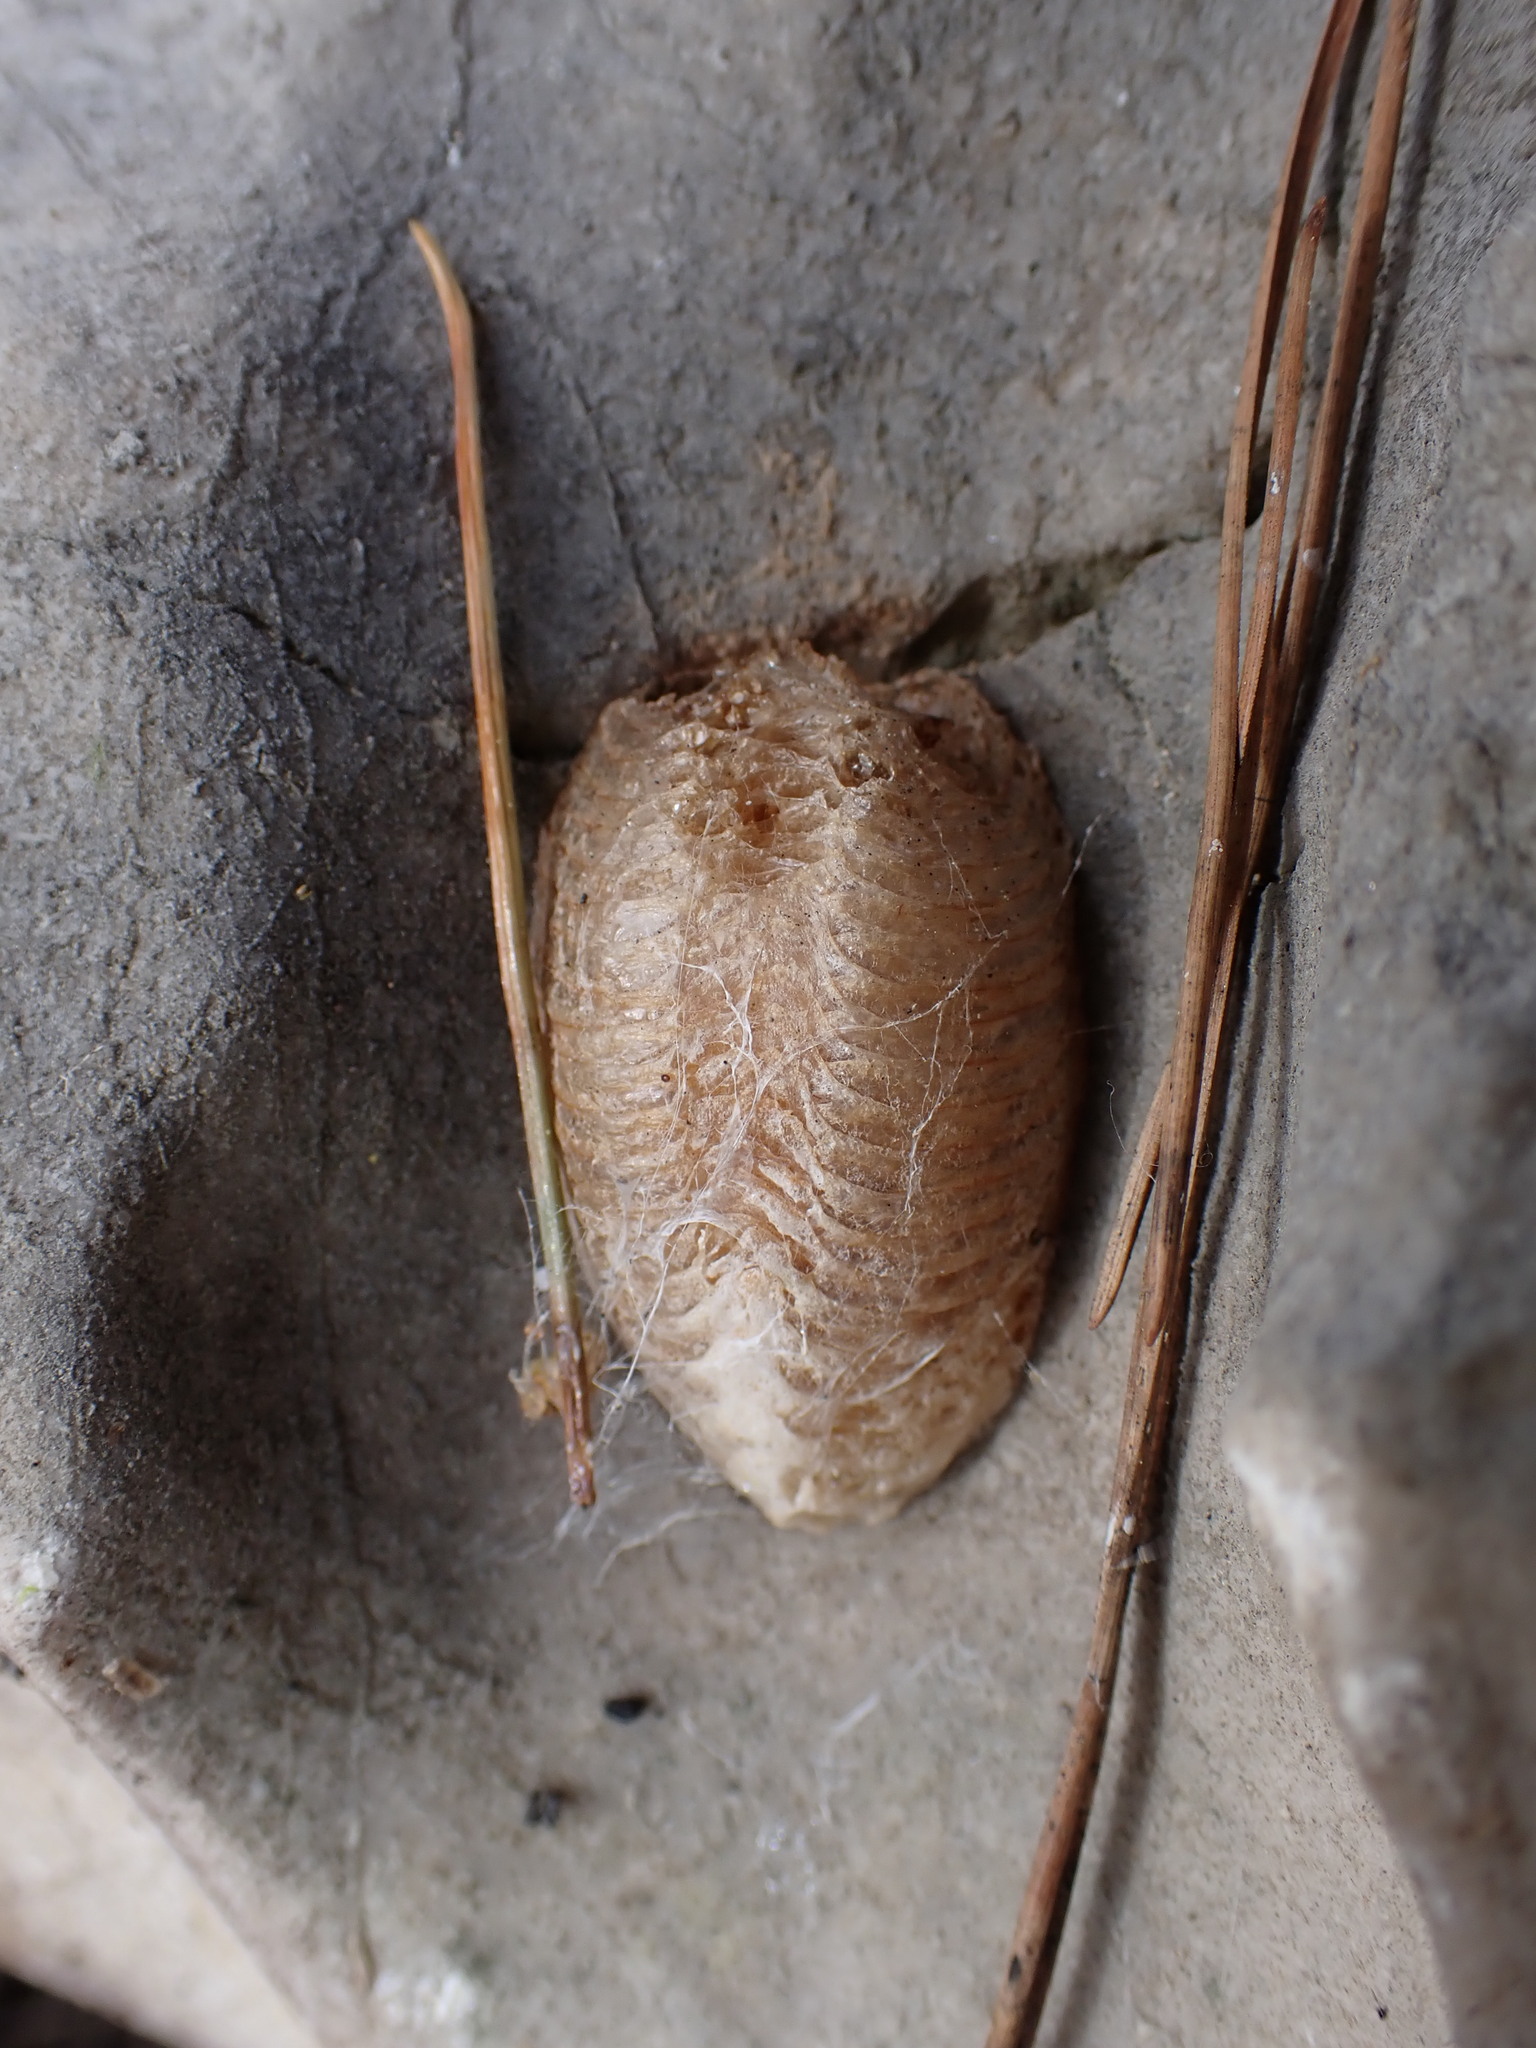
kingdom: Animalia
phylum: Arthropoda
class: Insecta
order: Mantodea
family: Mantidae
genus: Mantis
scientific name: Mantis religiosa
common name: Praying mantis
